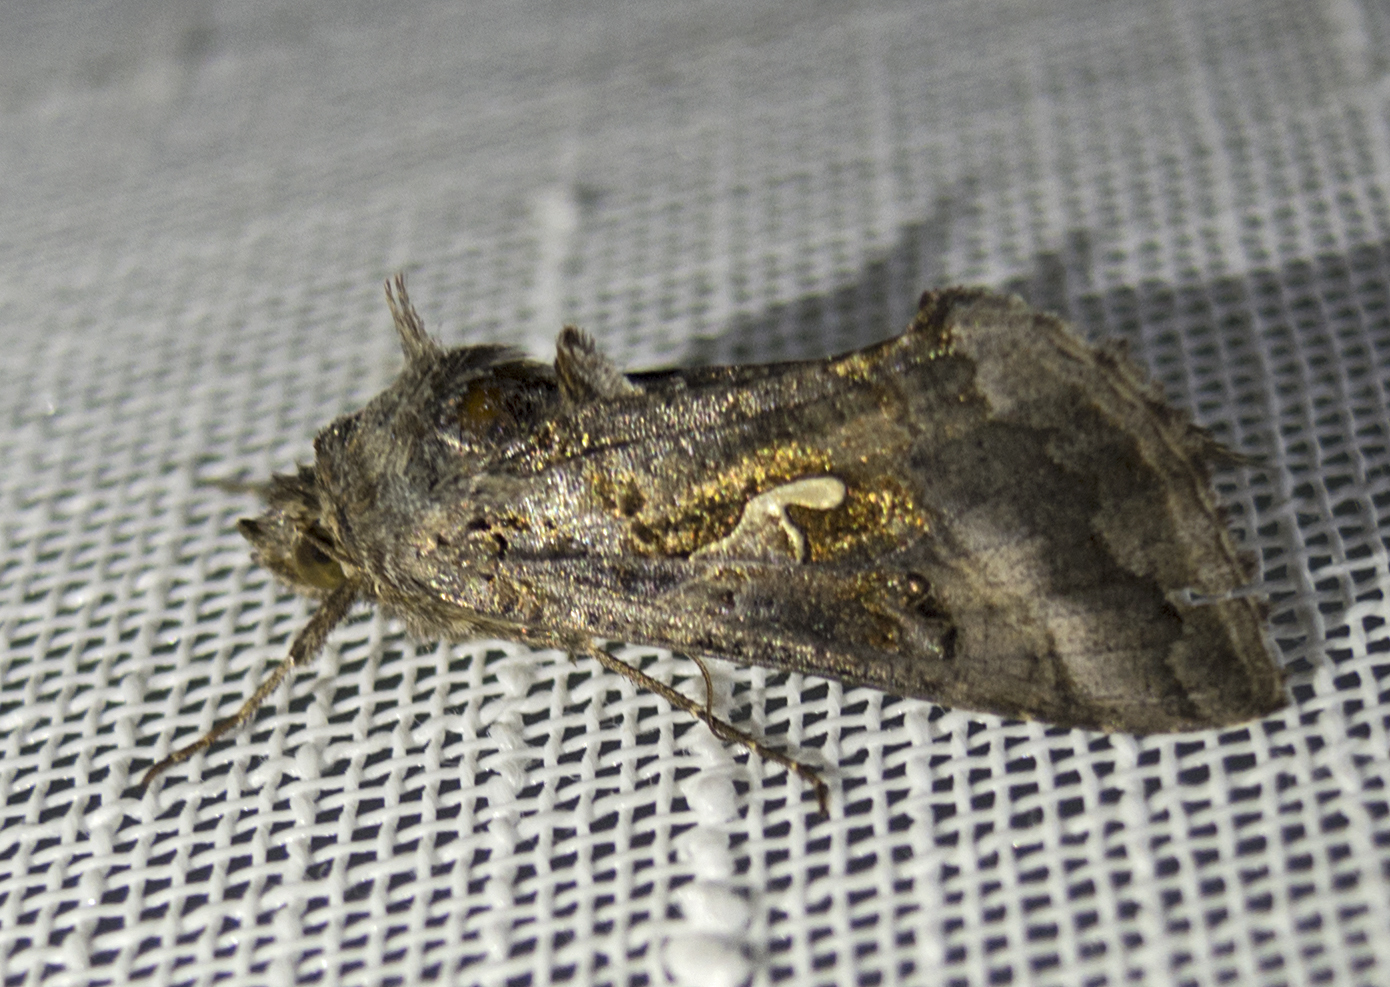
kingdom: Animalia
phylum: Arthropoda
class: Insecta
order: Lepidoptera
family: Noctuidae
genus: Autographa
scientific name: Autographa gamma
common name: Silver y
